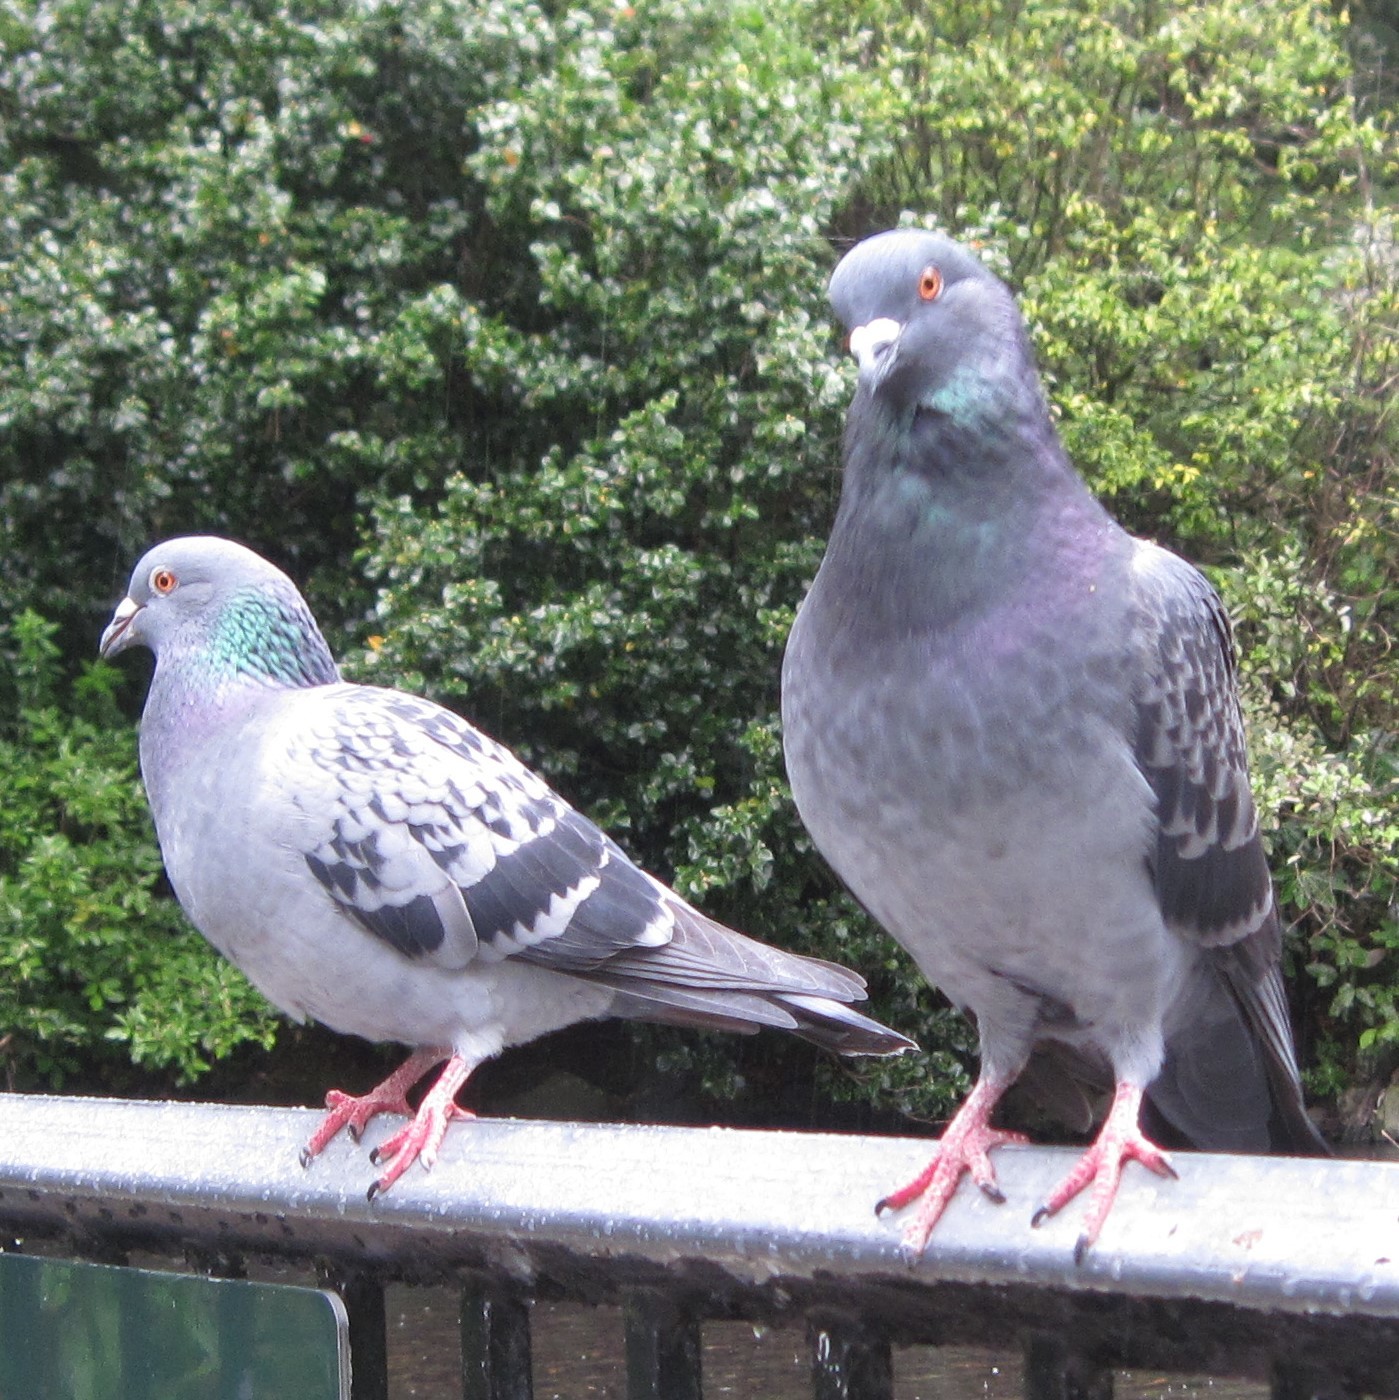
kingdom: Animalia
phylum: Chordata
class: Aves
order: Columbiformes
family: Columbidae
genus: Columba
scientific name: Columba livia
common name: Rock pigeon
